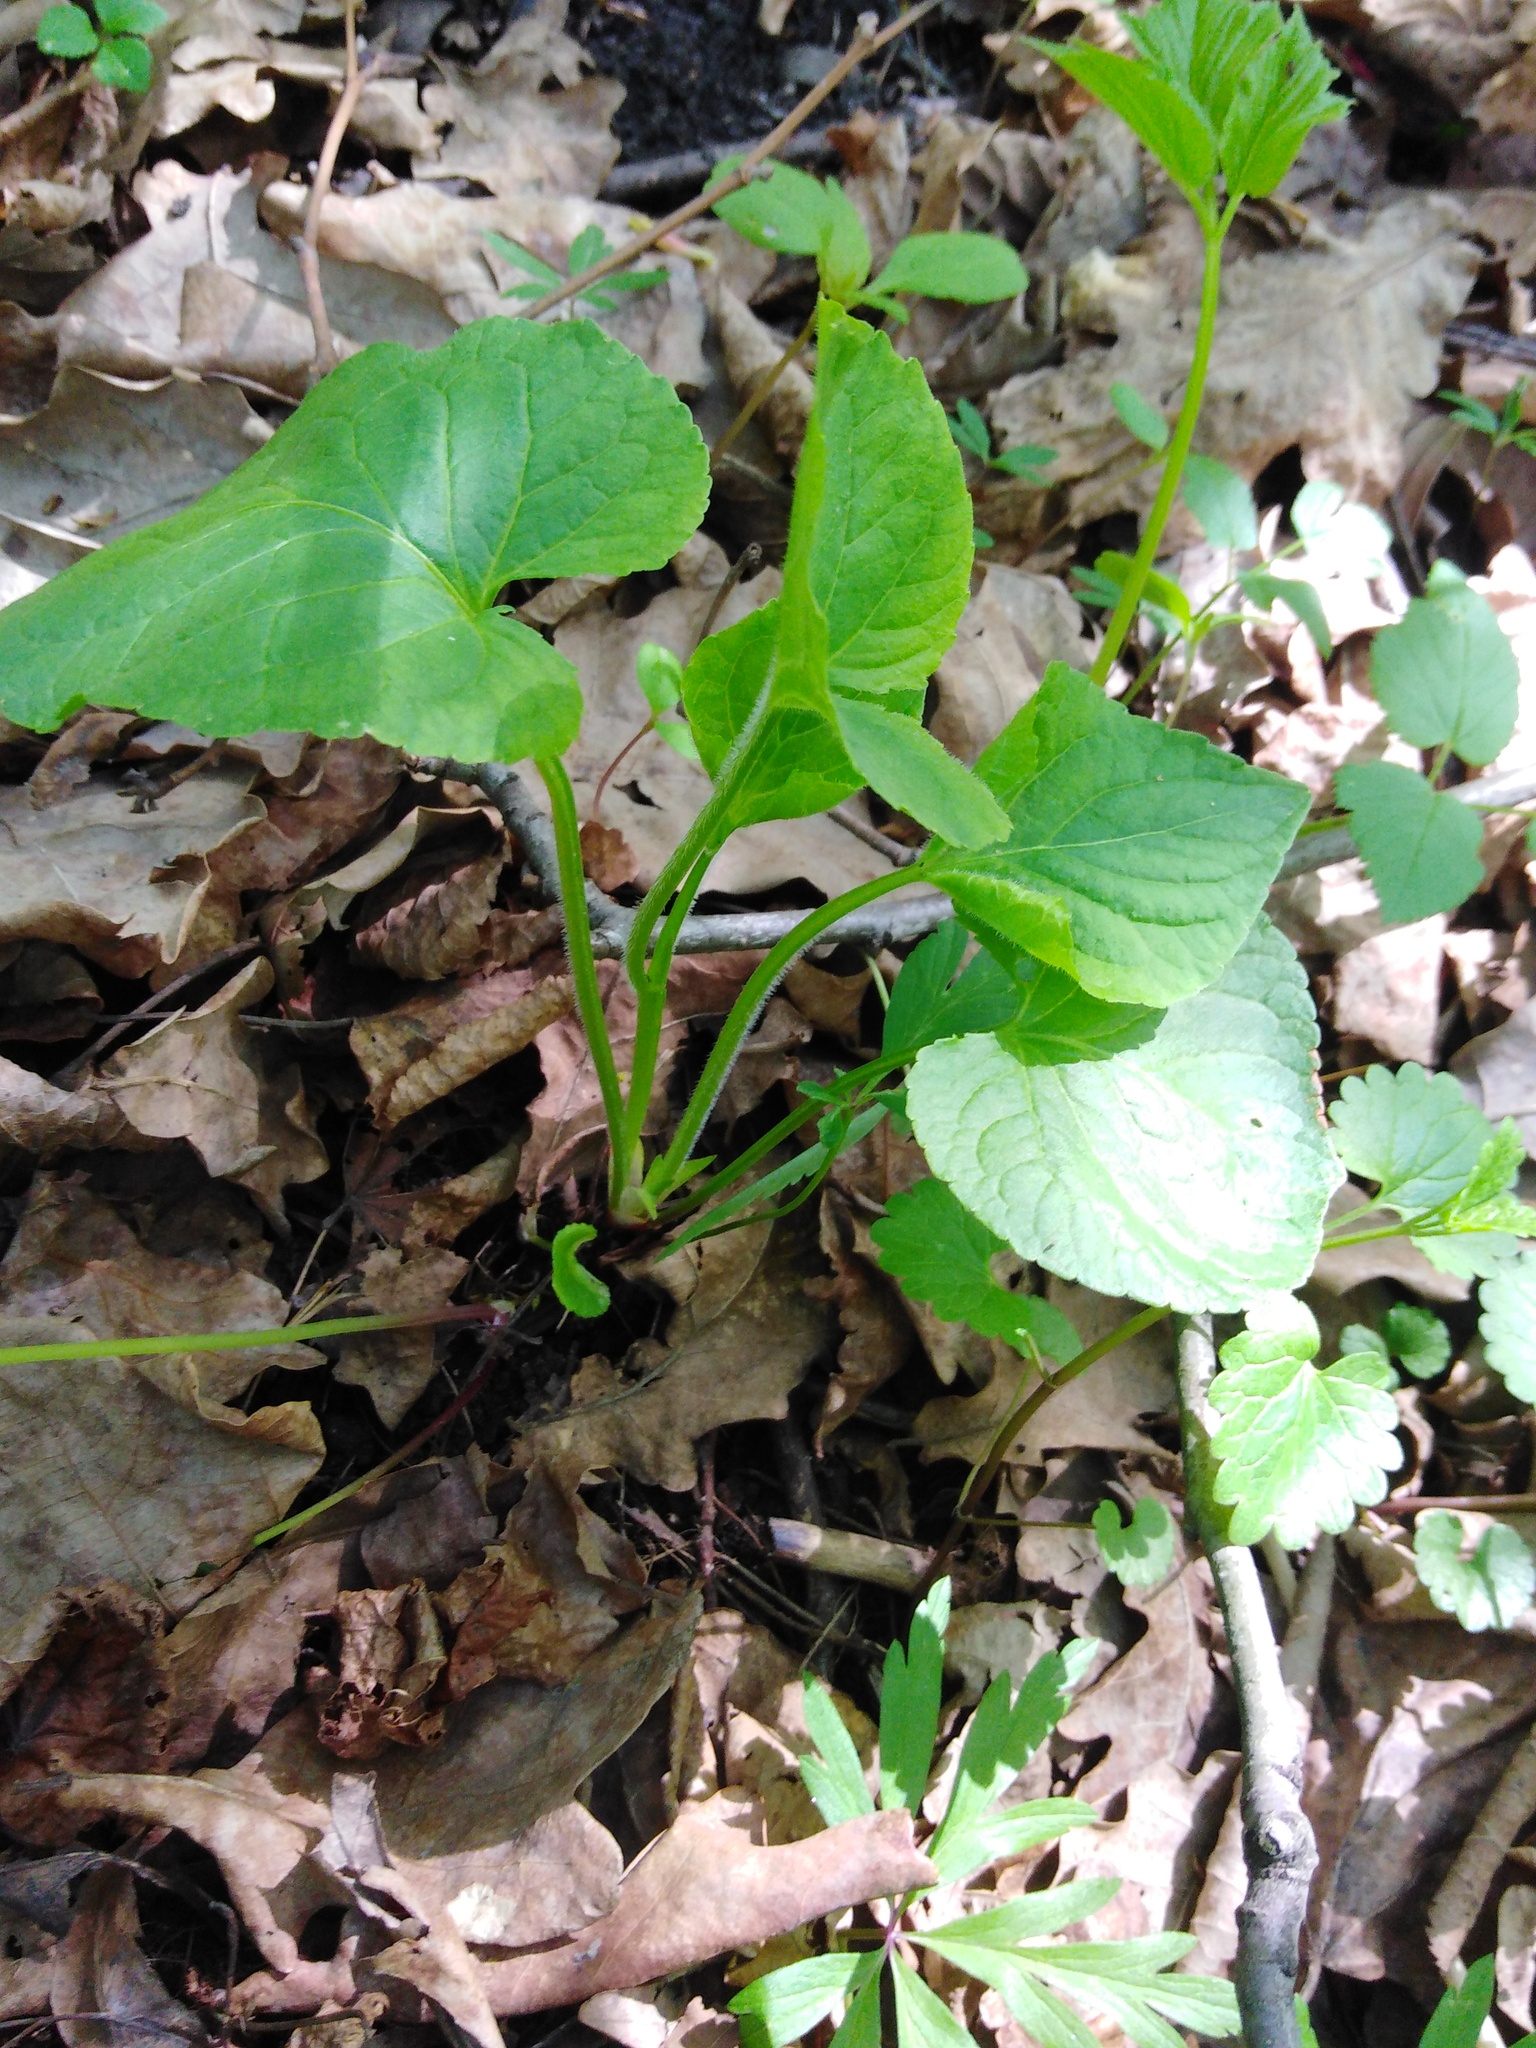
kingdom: Plantae
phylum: Tracheophyta
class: Magnoliopsida
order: Malpighiales
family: Violaceae
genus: Viola
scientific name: Viola mirabilis
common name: Wonder violet
